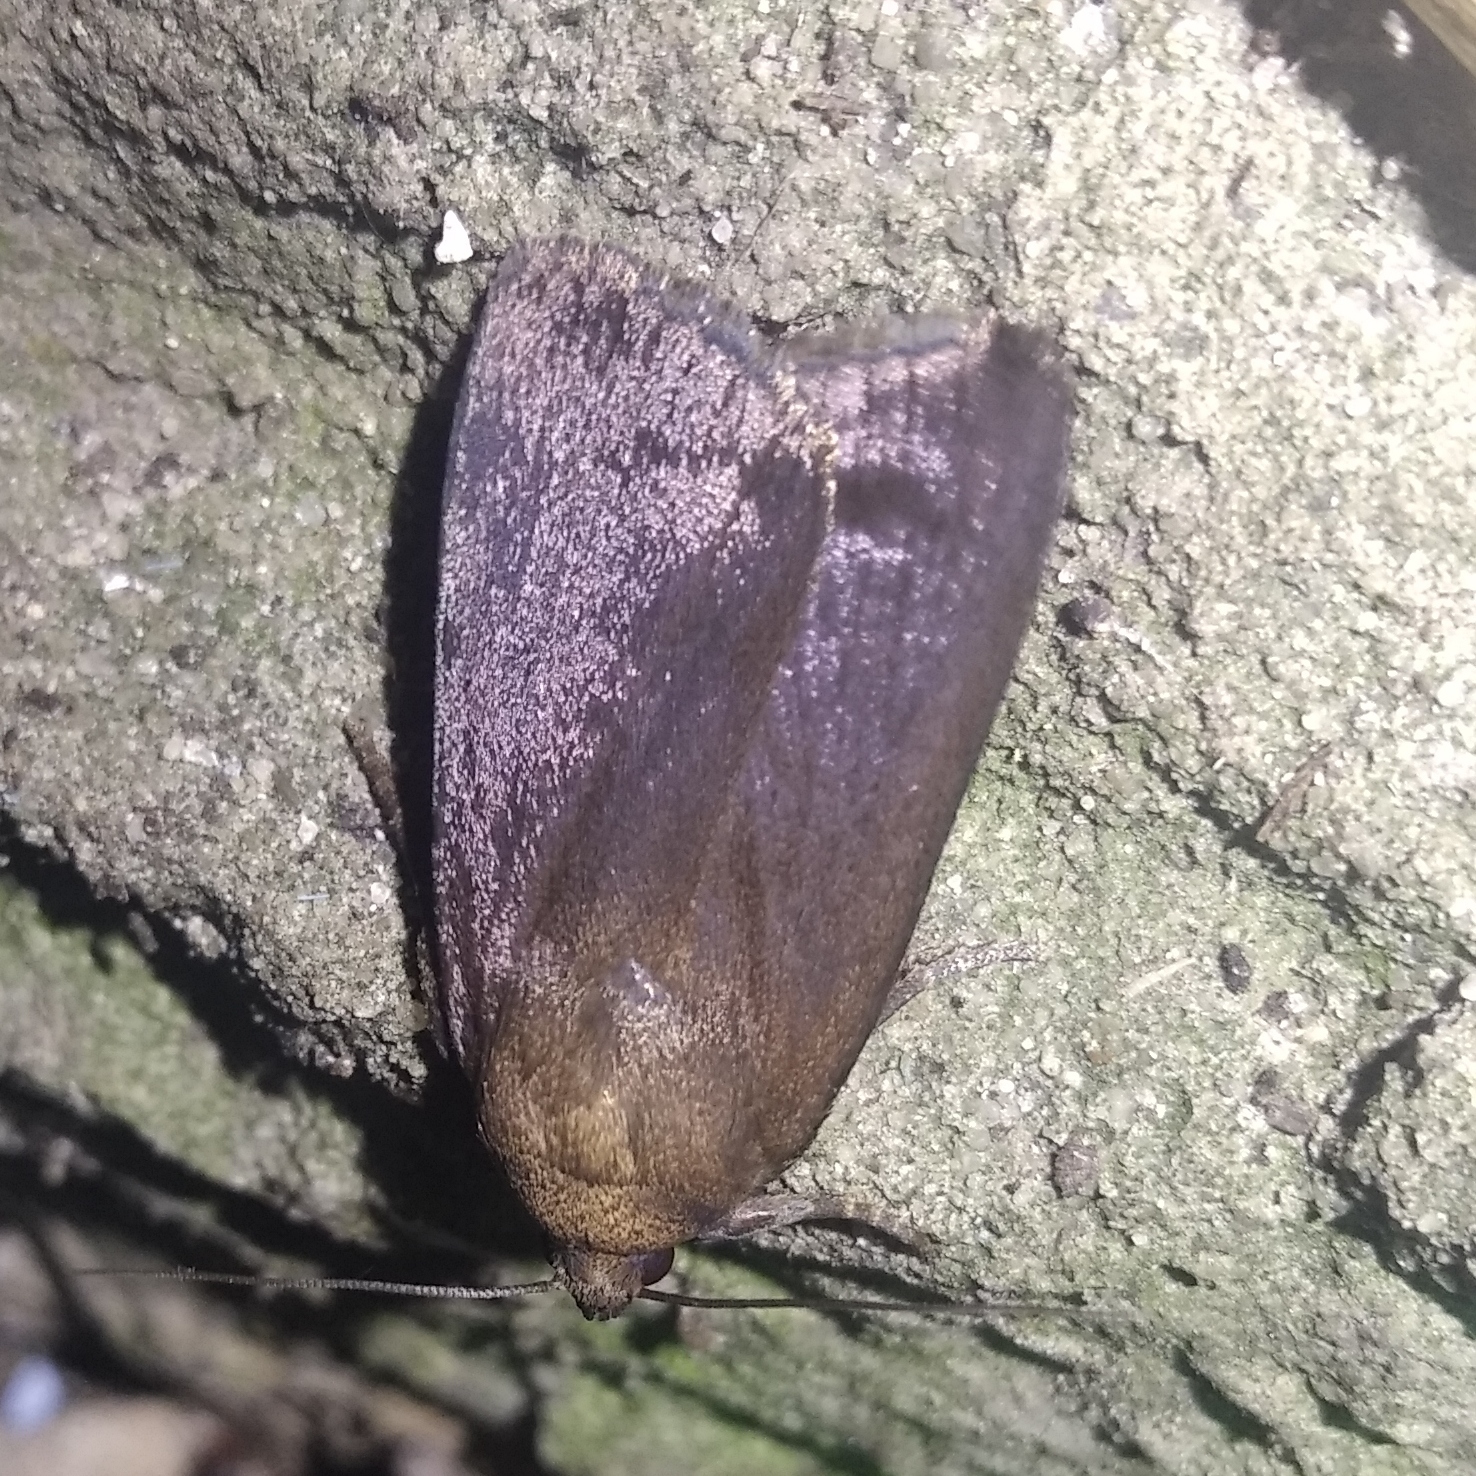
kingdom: Animalia
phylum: Arthropoda
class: Insecta
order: Lepidoptera
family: Noctuidae
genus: Amphipyra
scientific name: Amphipyra livida
